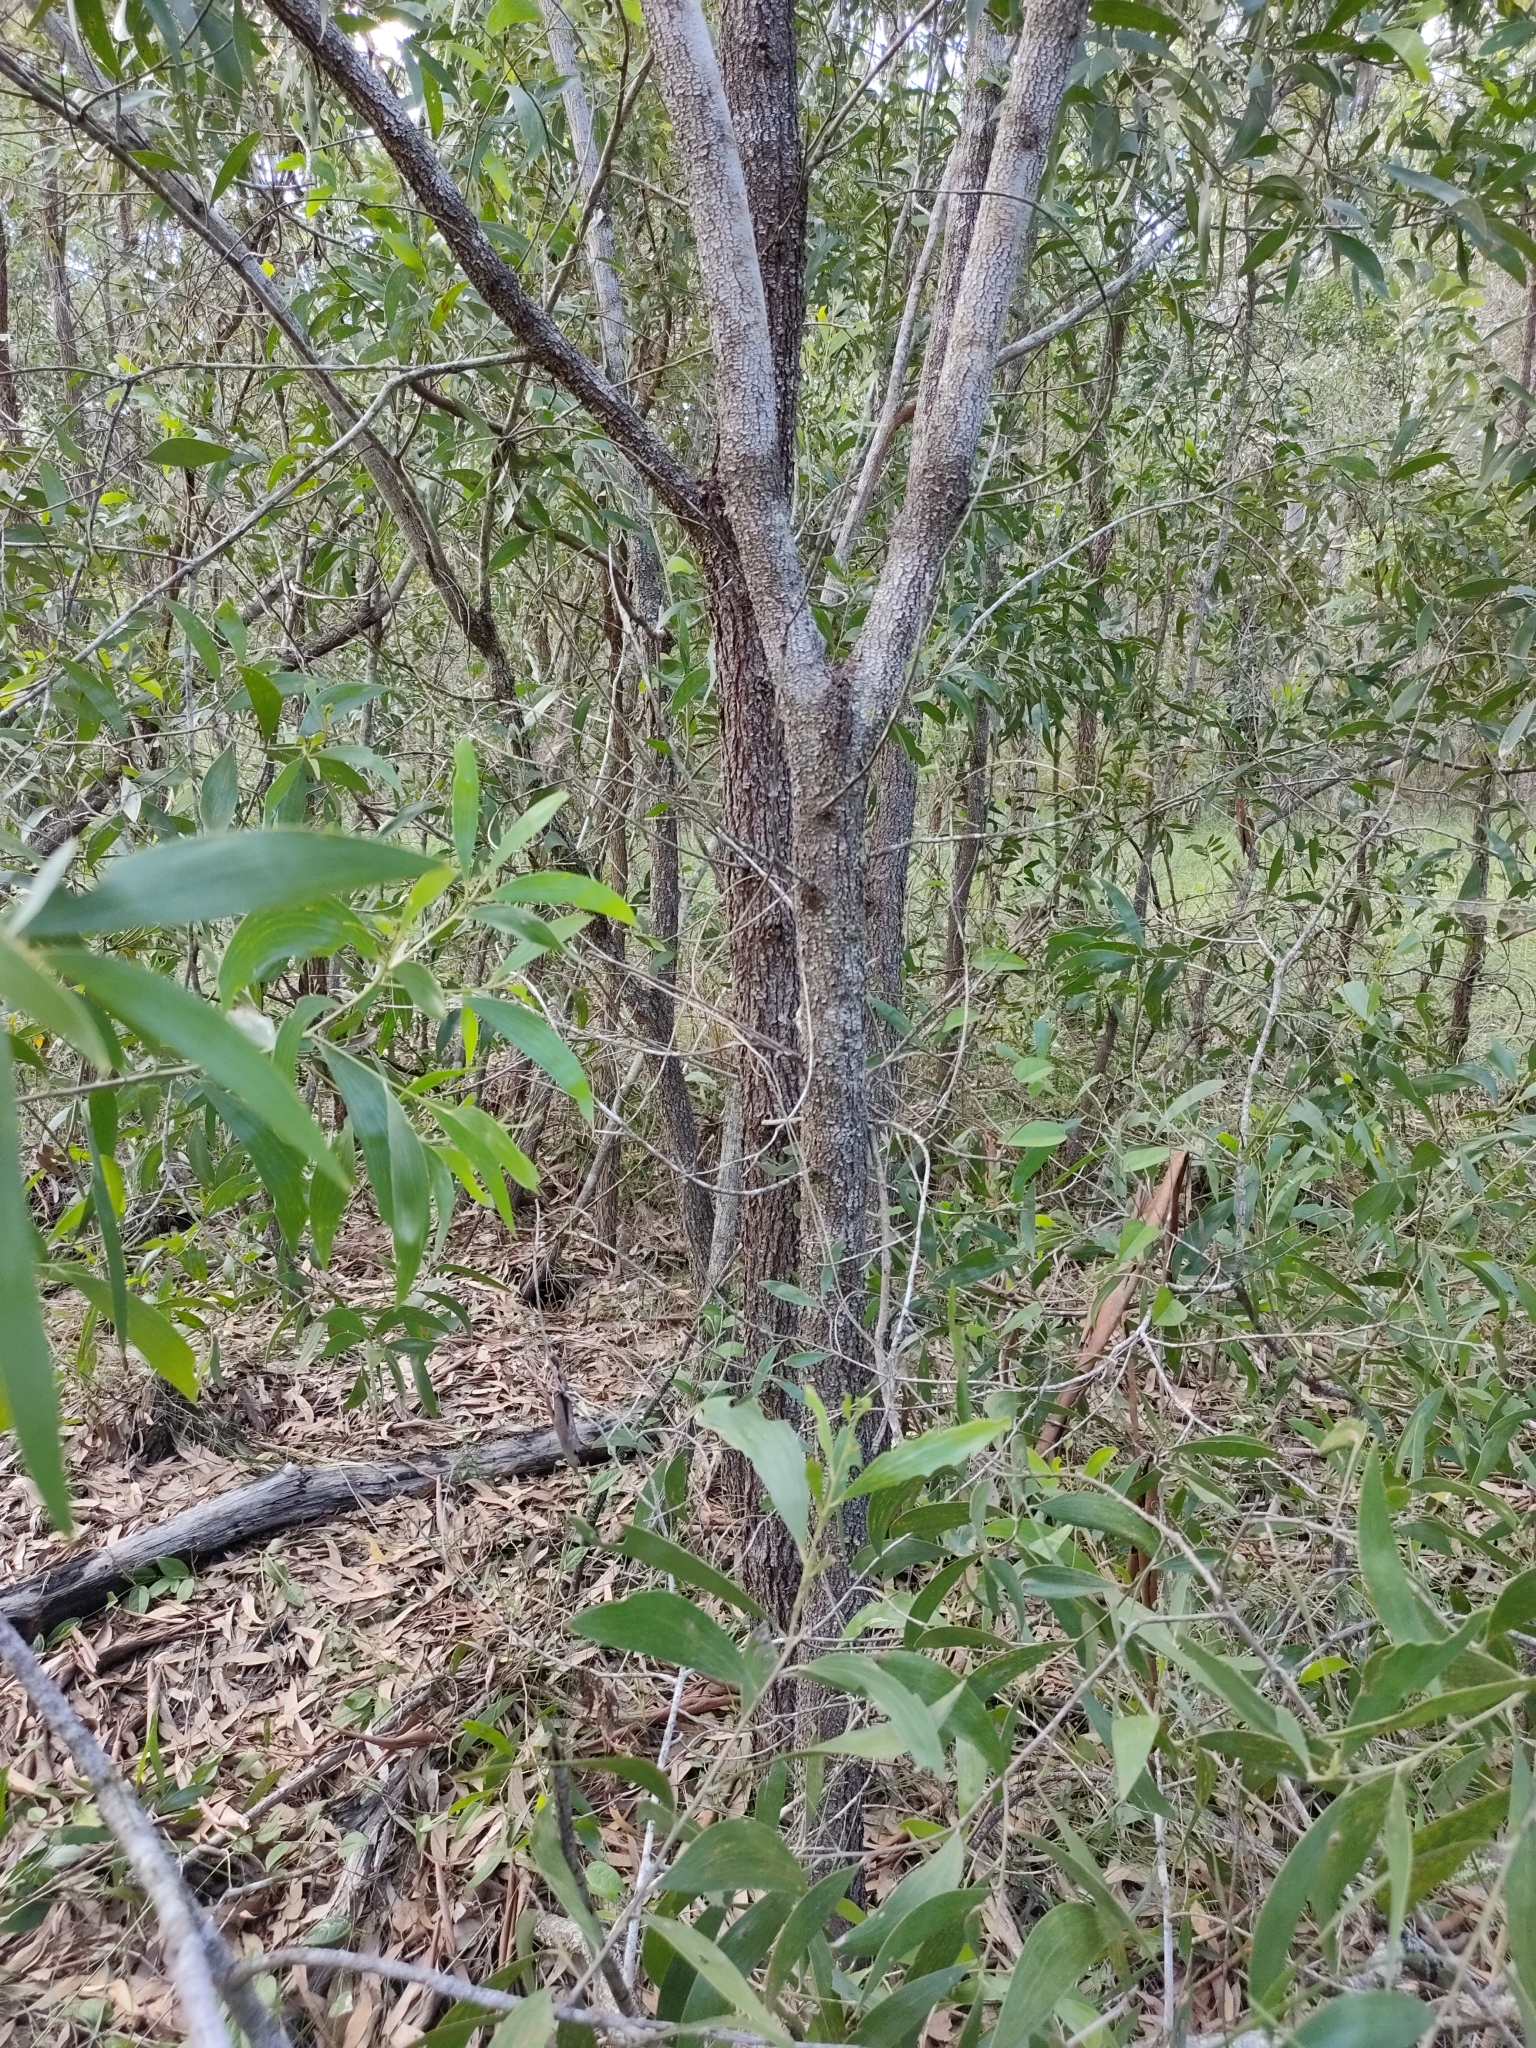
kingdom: Plantae
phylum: Tracheophyta
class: Magnoliopsida
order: Fabales
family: Fabaceae
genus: Acacia
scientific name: Acacia disparrima
